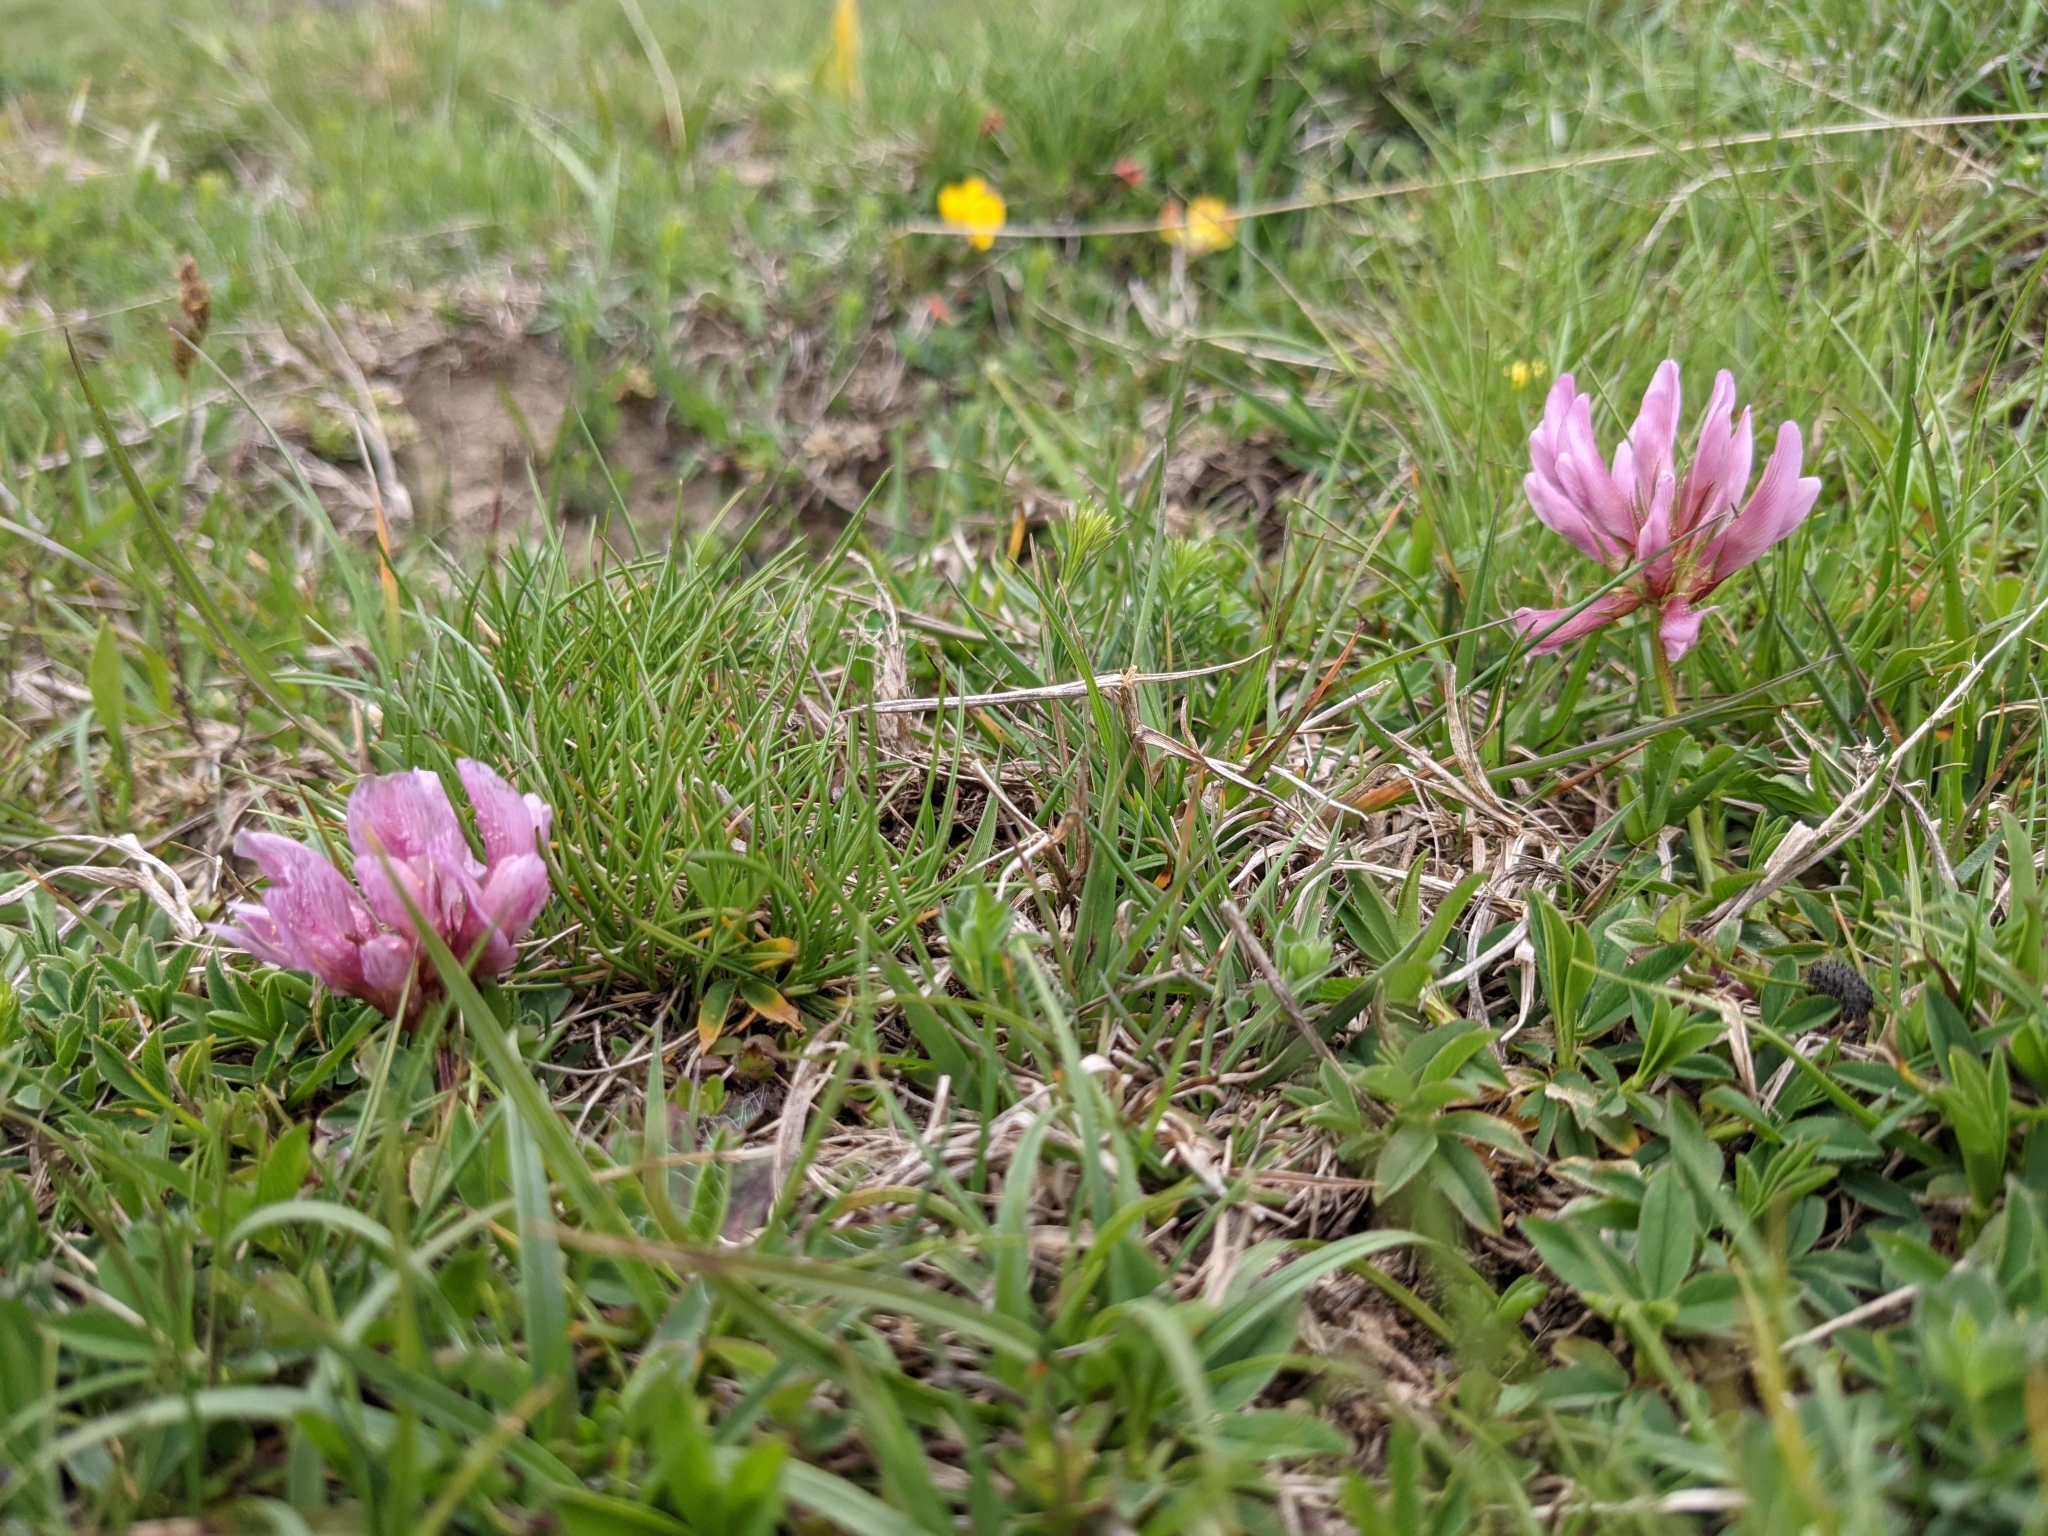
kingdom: Plantae
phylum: Tracheophyta
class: Magnoliopsida
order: Fabales
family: Fabaceae
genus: Trifolium
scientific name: Trifolium alpinum
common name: Alpine clover
